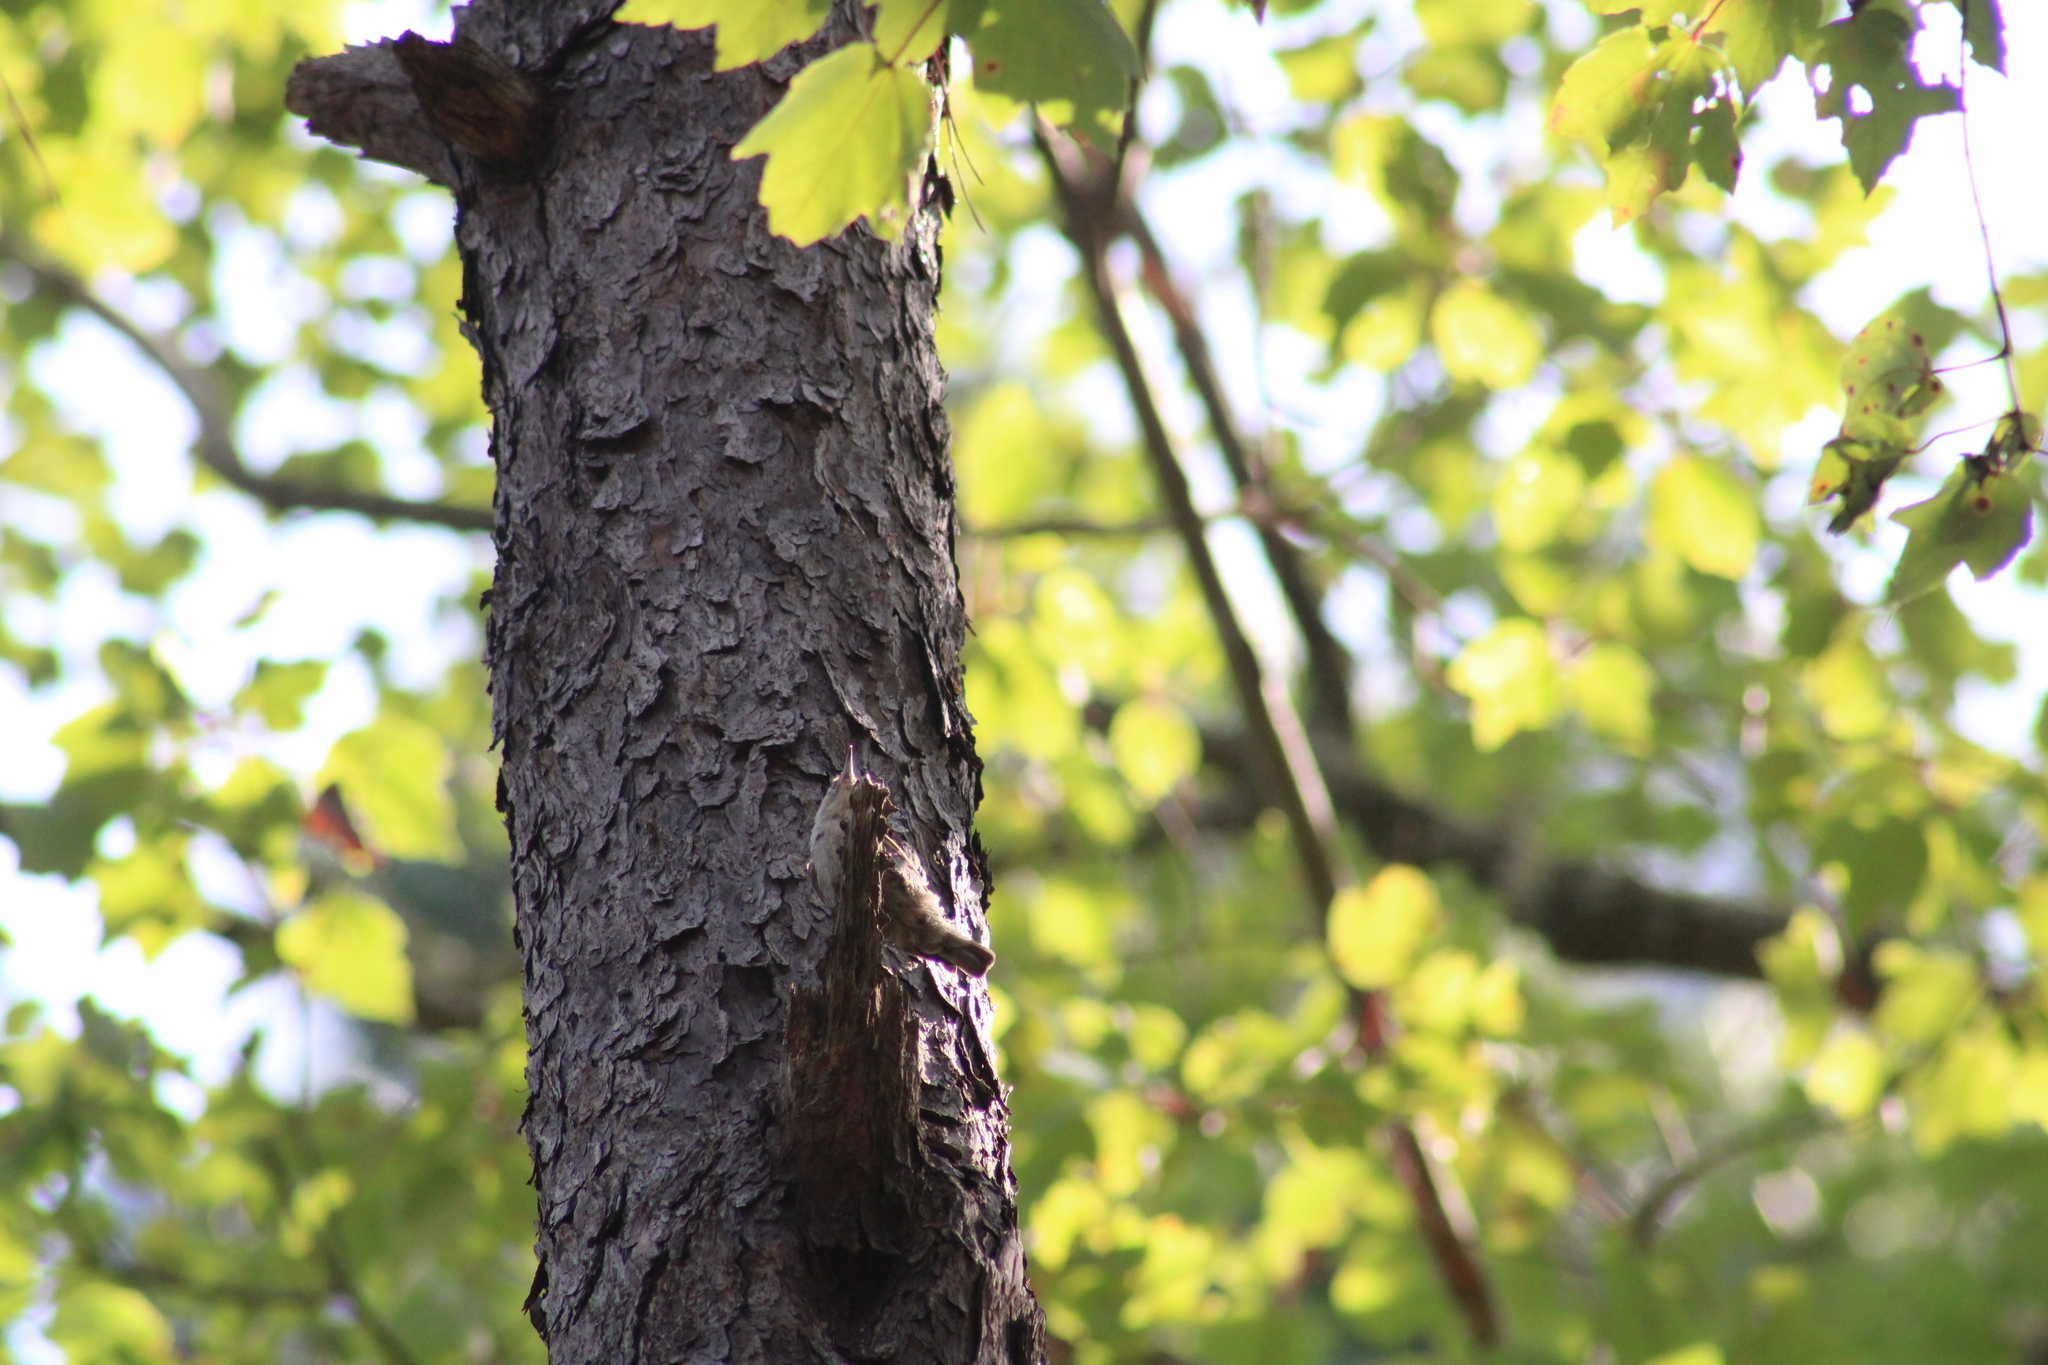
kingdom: Animalia
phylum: Chordata
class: Aves
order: Passeriformes
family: Sittidae
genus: Sitta
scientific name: Sitta pusilla
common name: Brown-headed nuthatch
